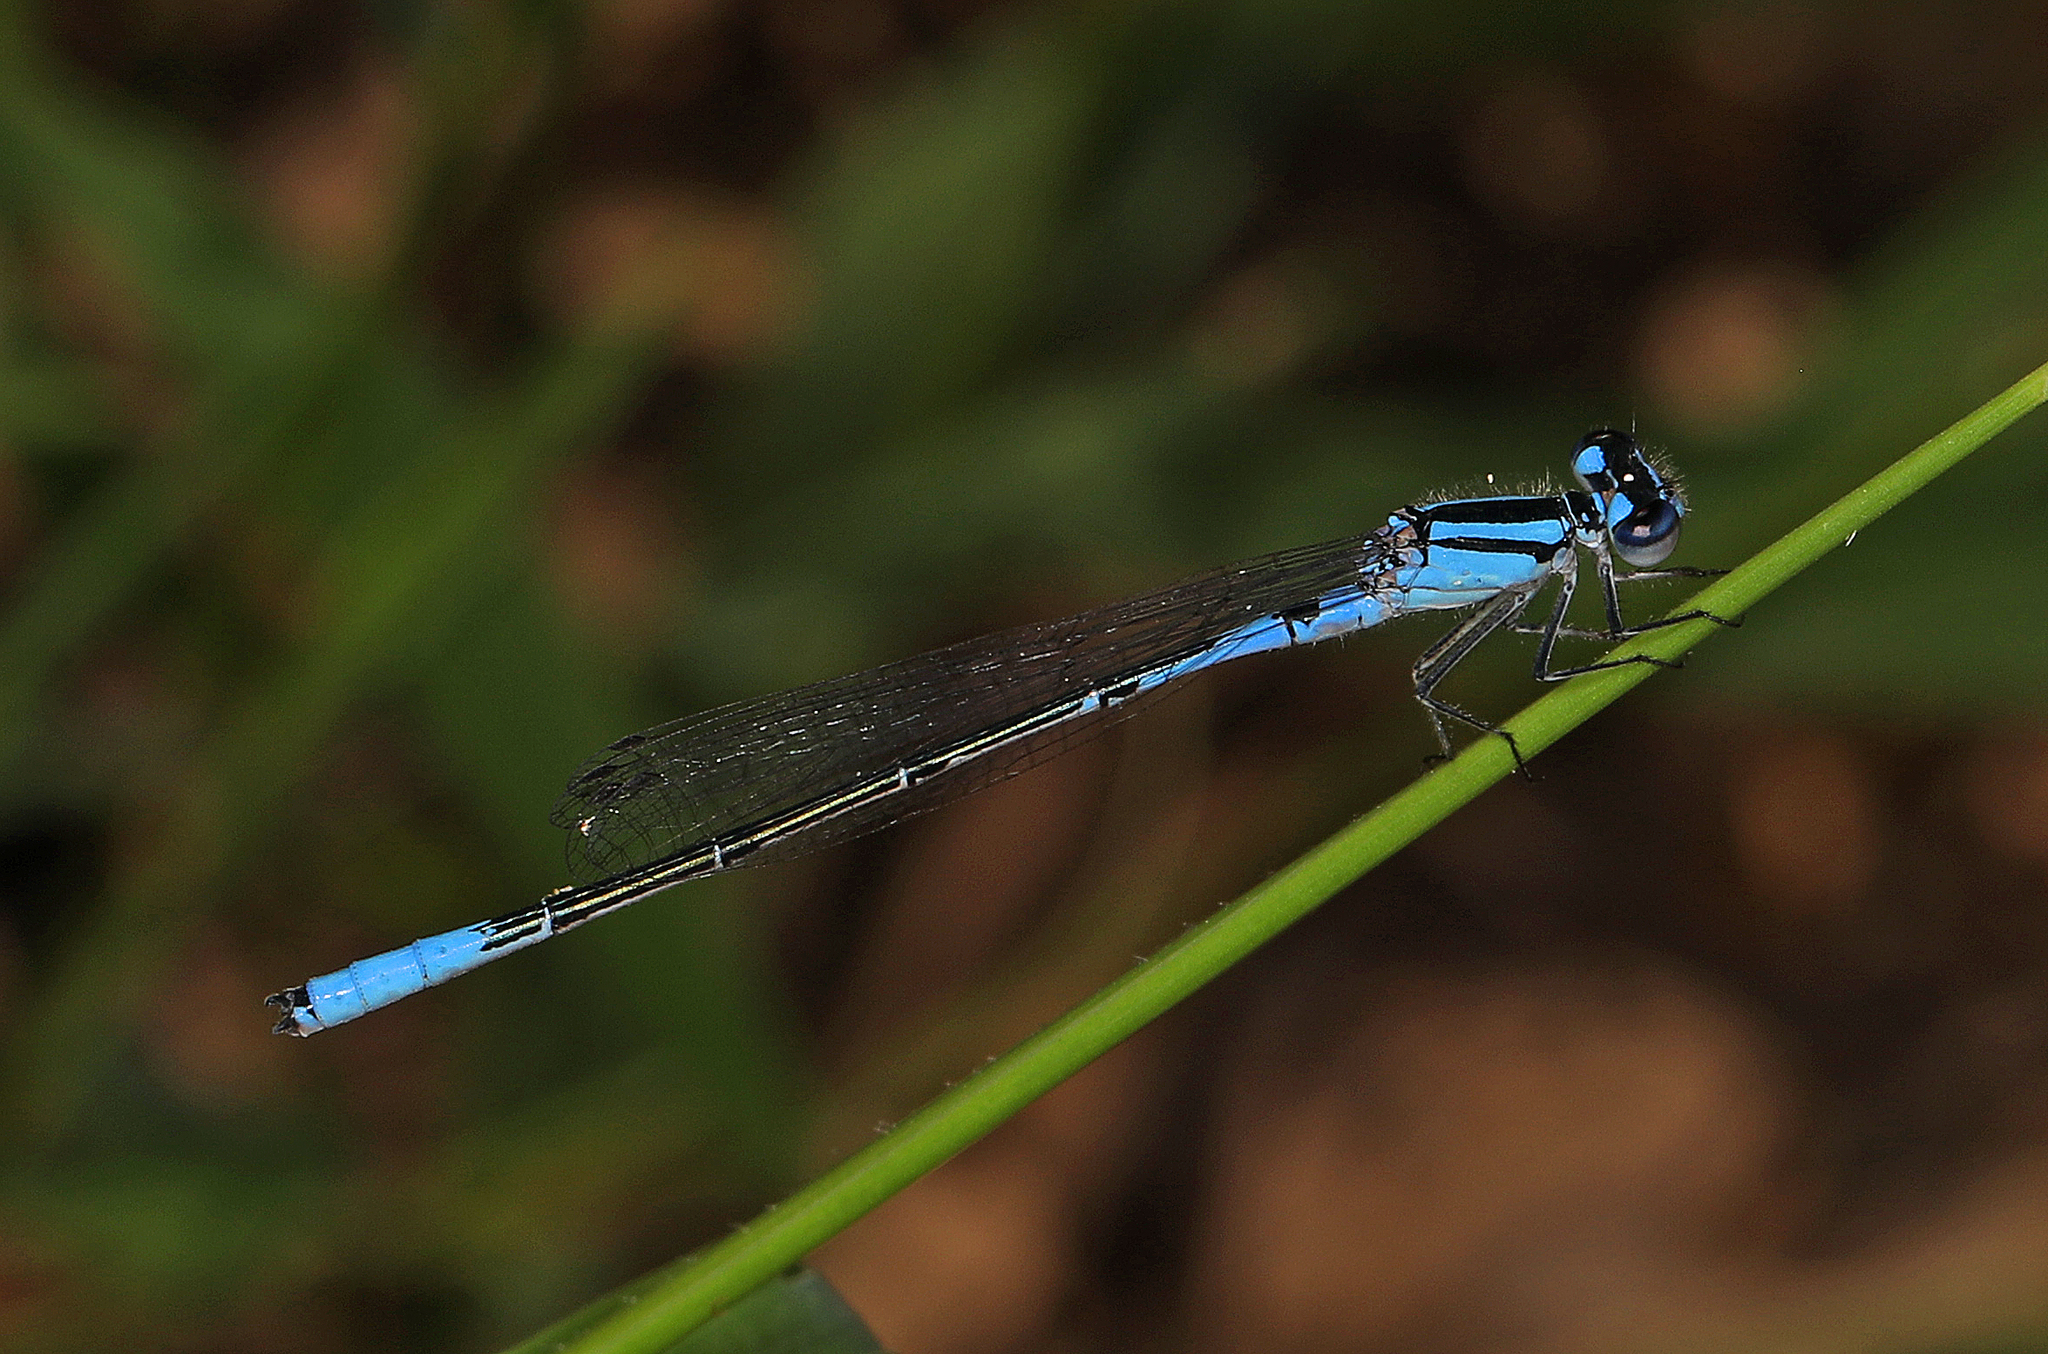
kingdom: Animalia
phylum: Arthropoda
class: Insecta
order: Odonata
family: Coenagrionidae
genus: Enallagma
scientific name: Enallagma aspersum
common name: Azure bluet
